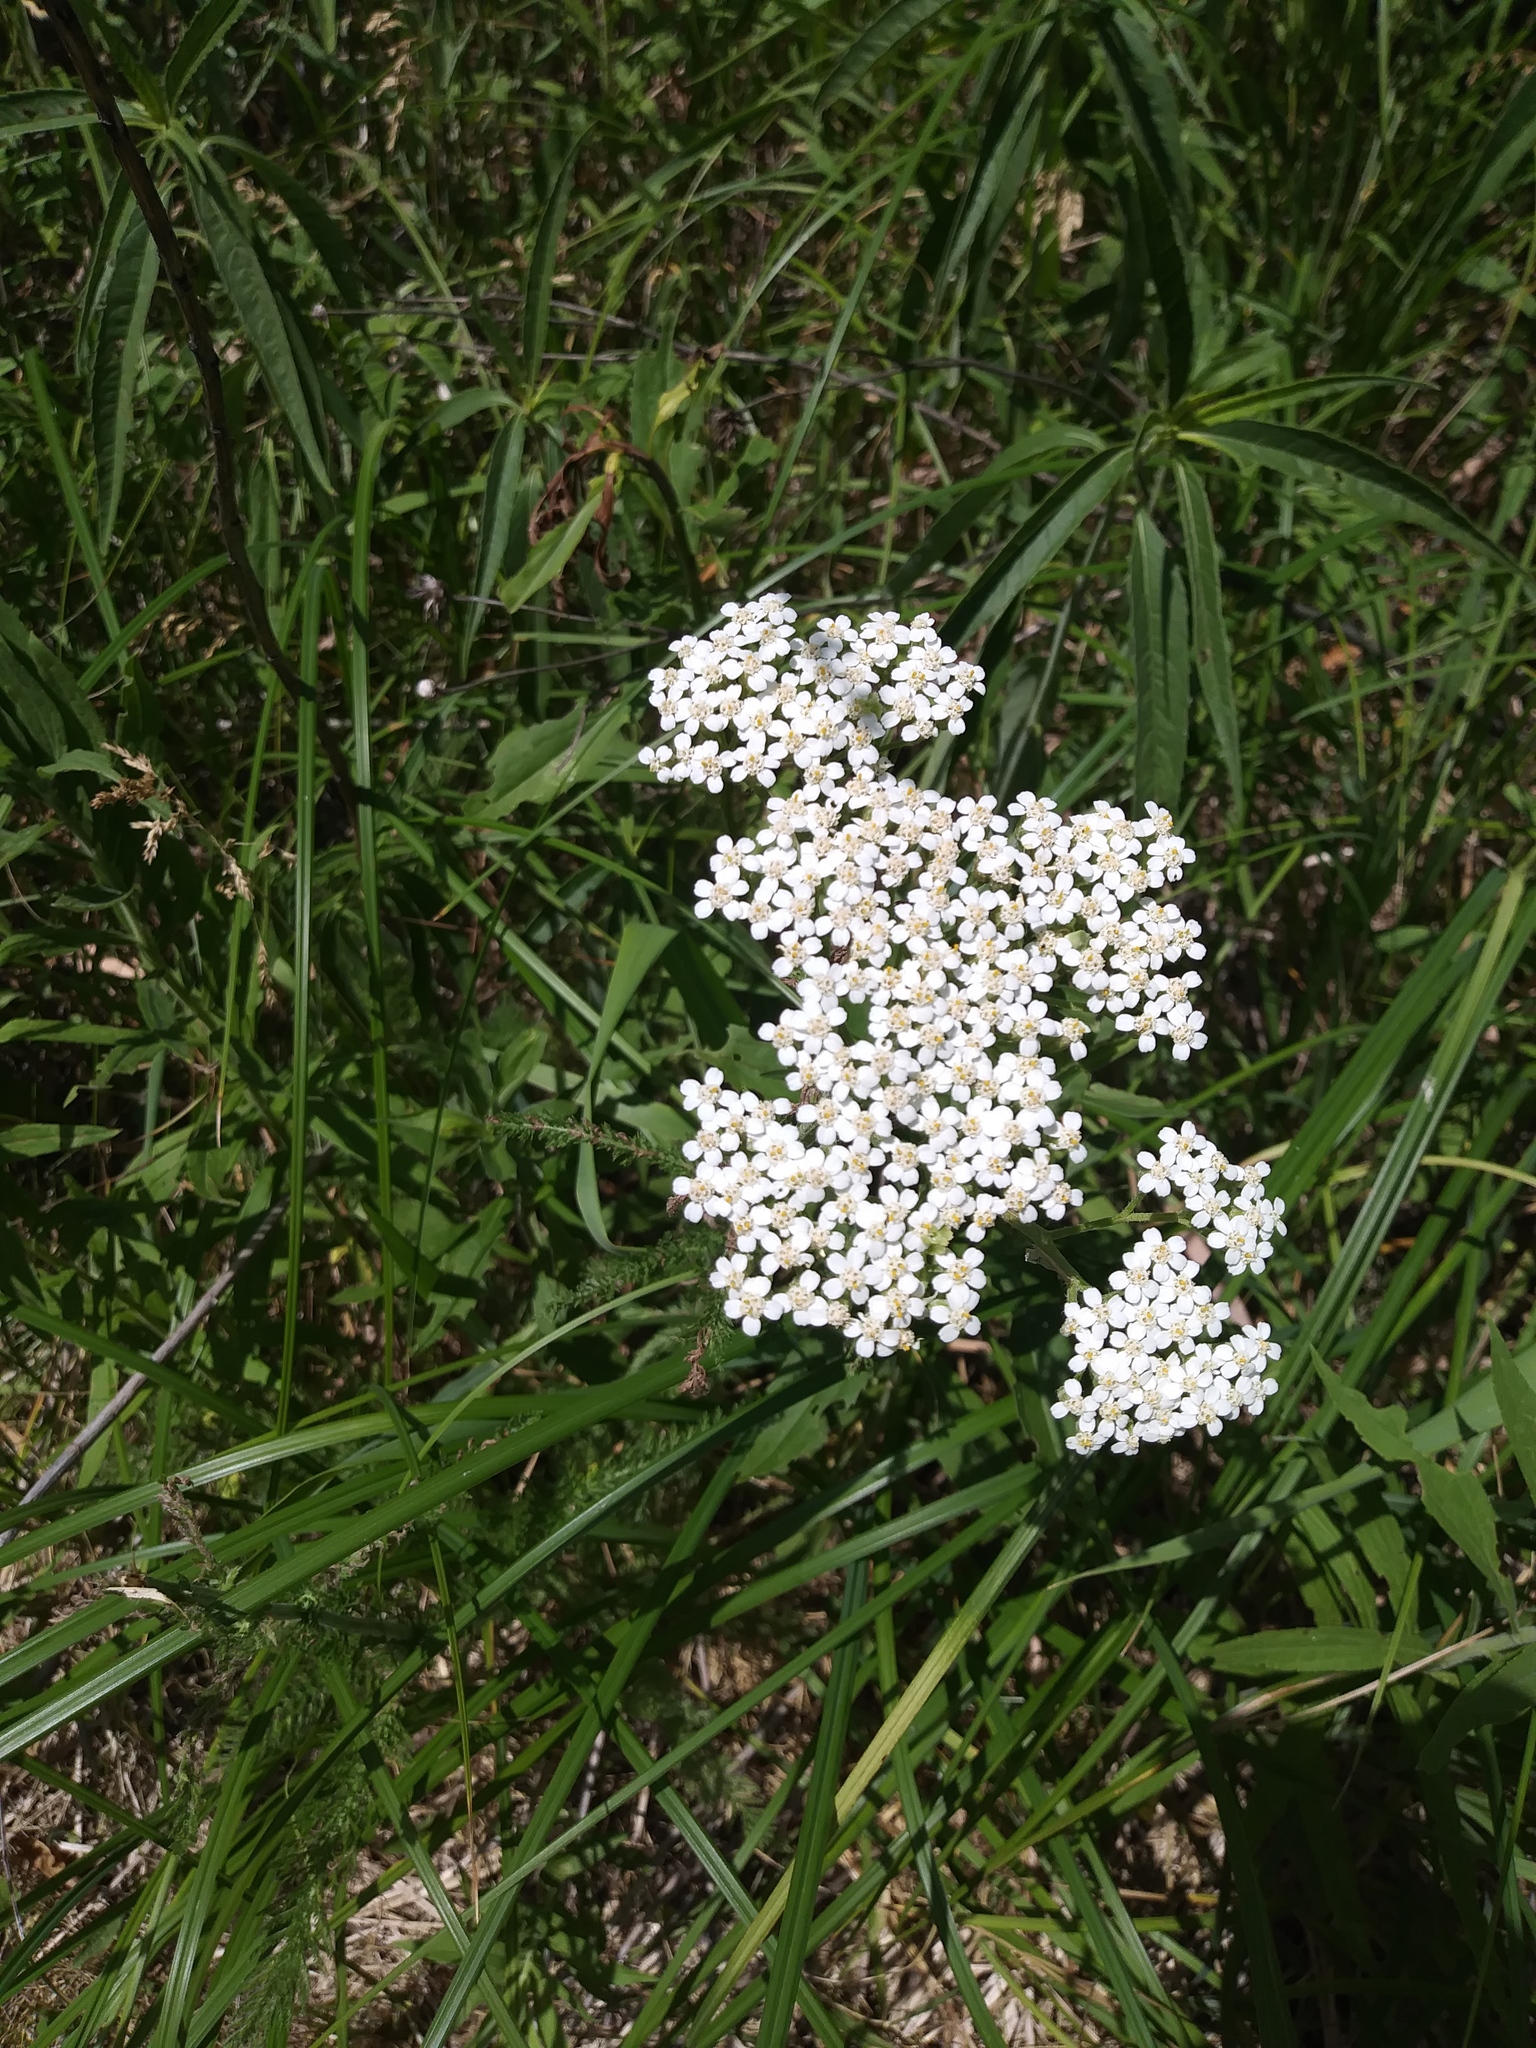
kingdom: Plantae
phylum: Tracheophyta
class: Magnoliopsida
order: Asterales
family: Asteraceae
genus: Achillea
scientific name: Achillea millefolium
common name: Yarrow
